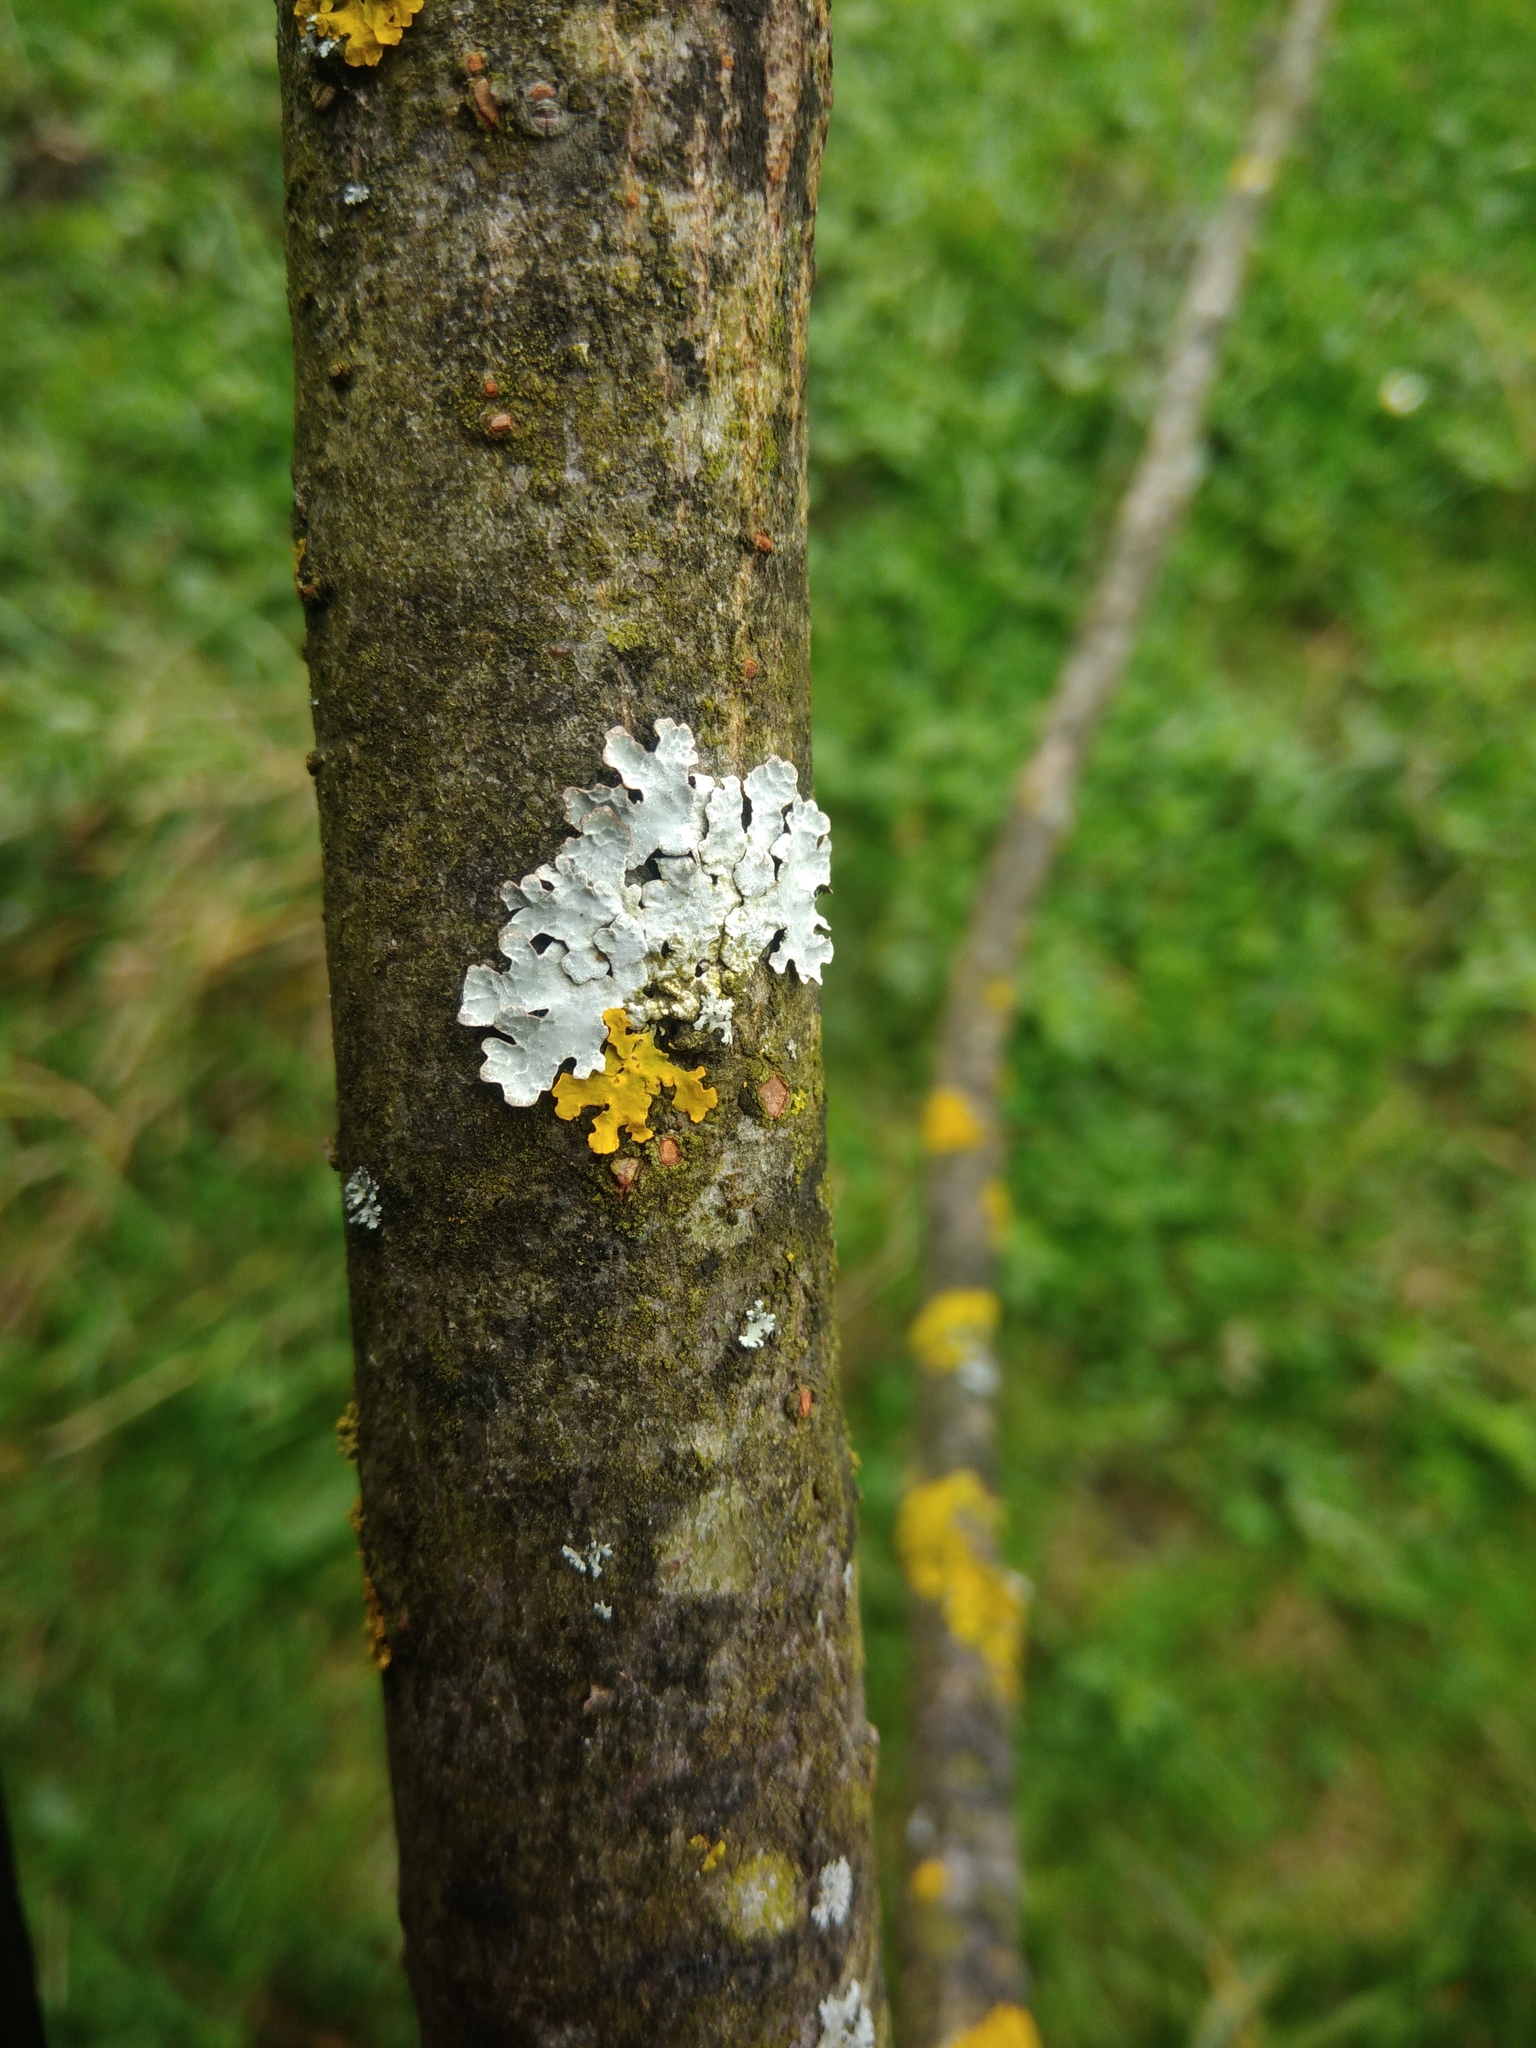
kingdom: Fungi
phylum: Ascomycota
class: Lecanoromycetes
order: Lecanorales
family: Parmeliaceae
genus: Parmelia
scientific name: Parmelia sulcata
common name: Netted shield lichen
